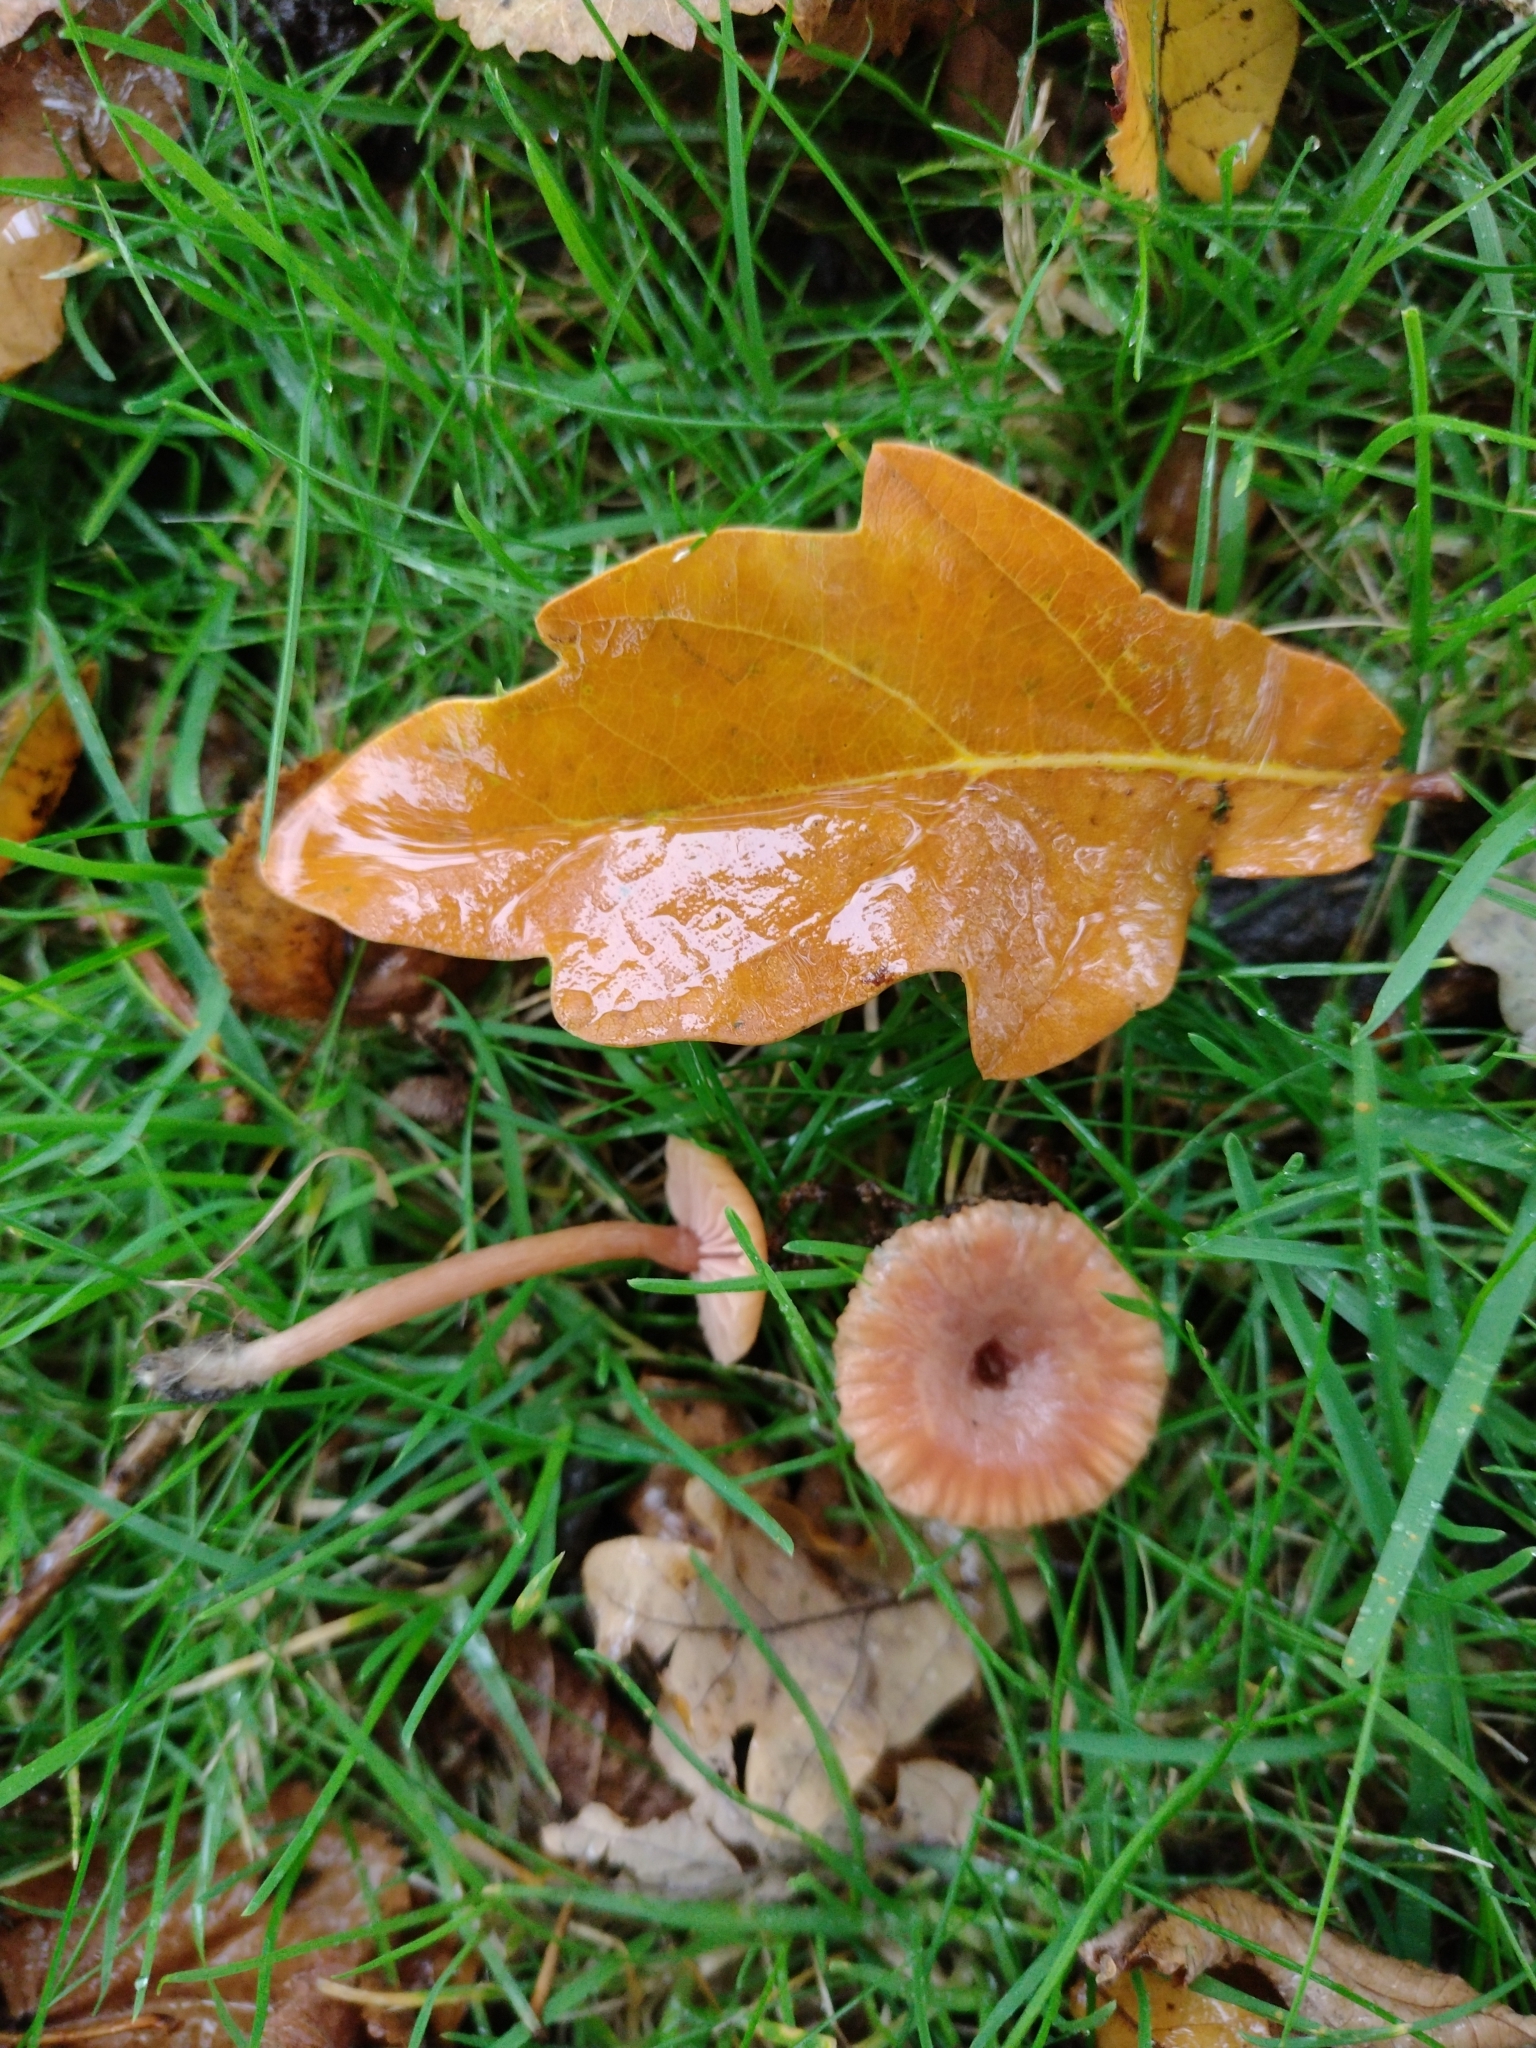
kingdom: Fungi
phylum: Basidiomycota
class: Agaricomycetes
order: Agaricales
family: Hydnangiaceae
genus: Laccaria
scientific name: Laccaria laccata
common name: Deceiver
